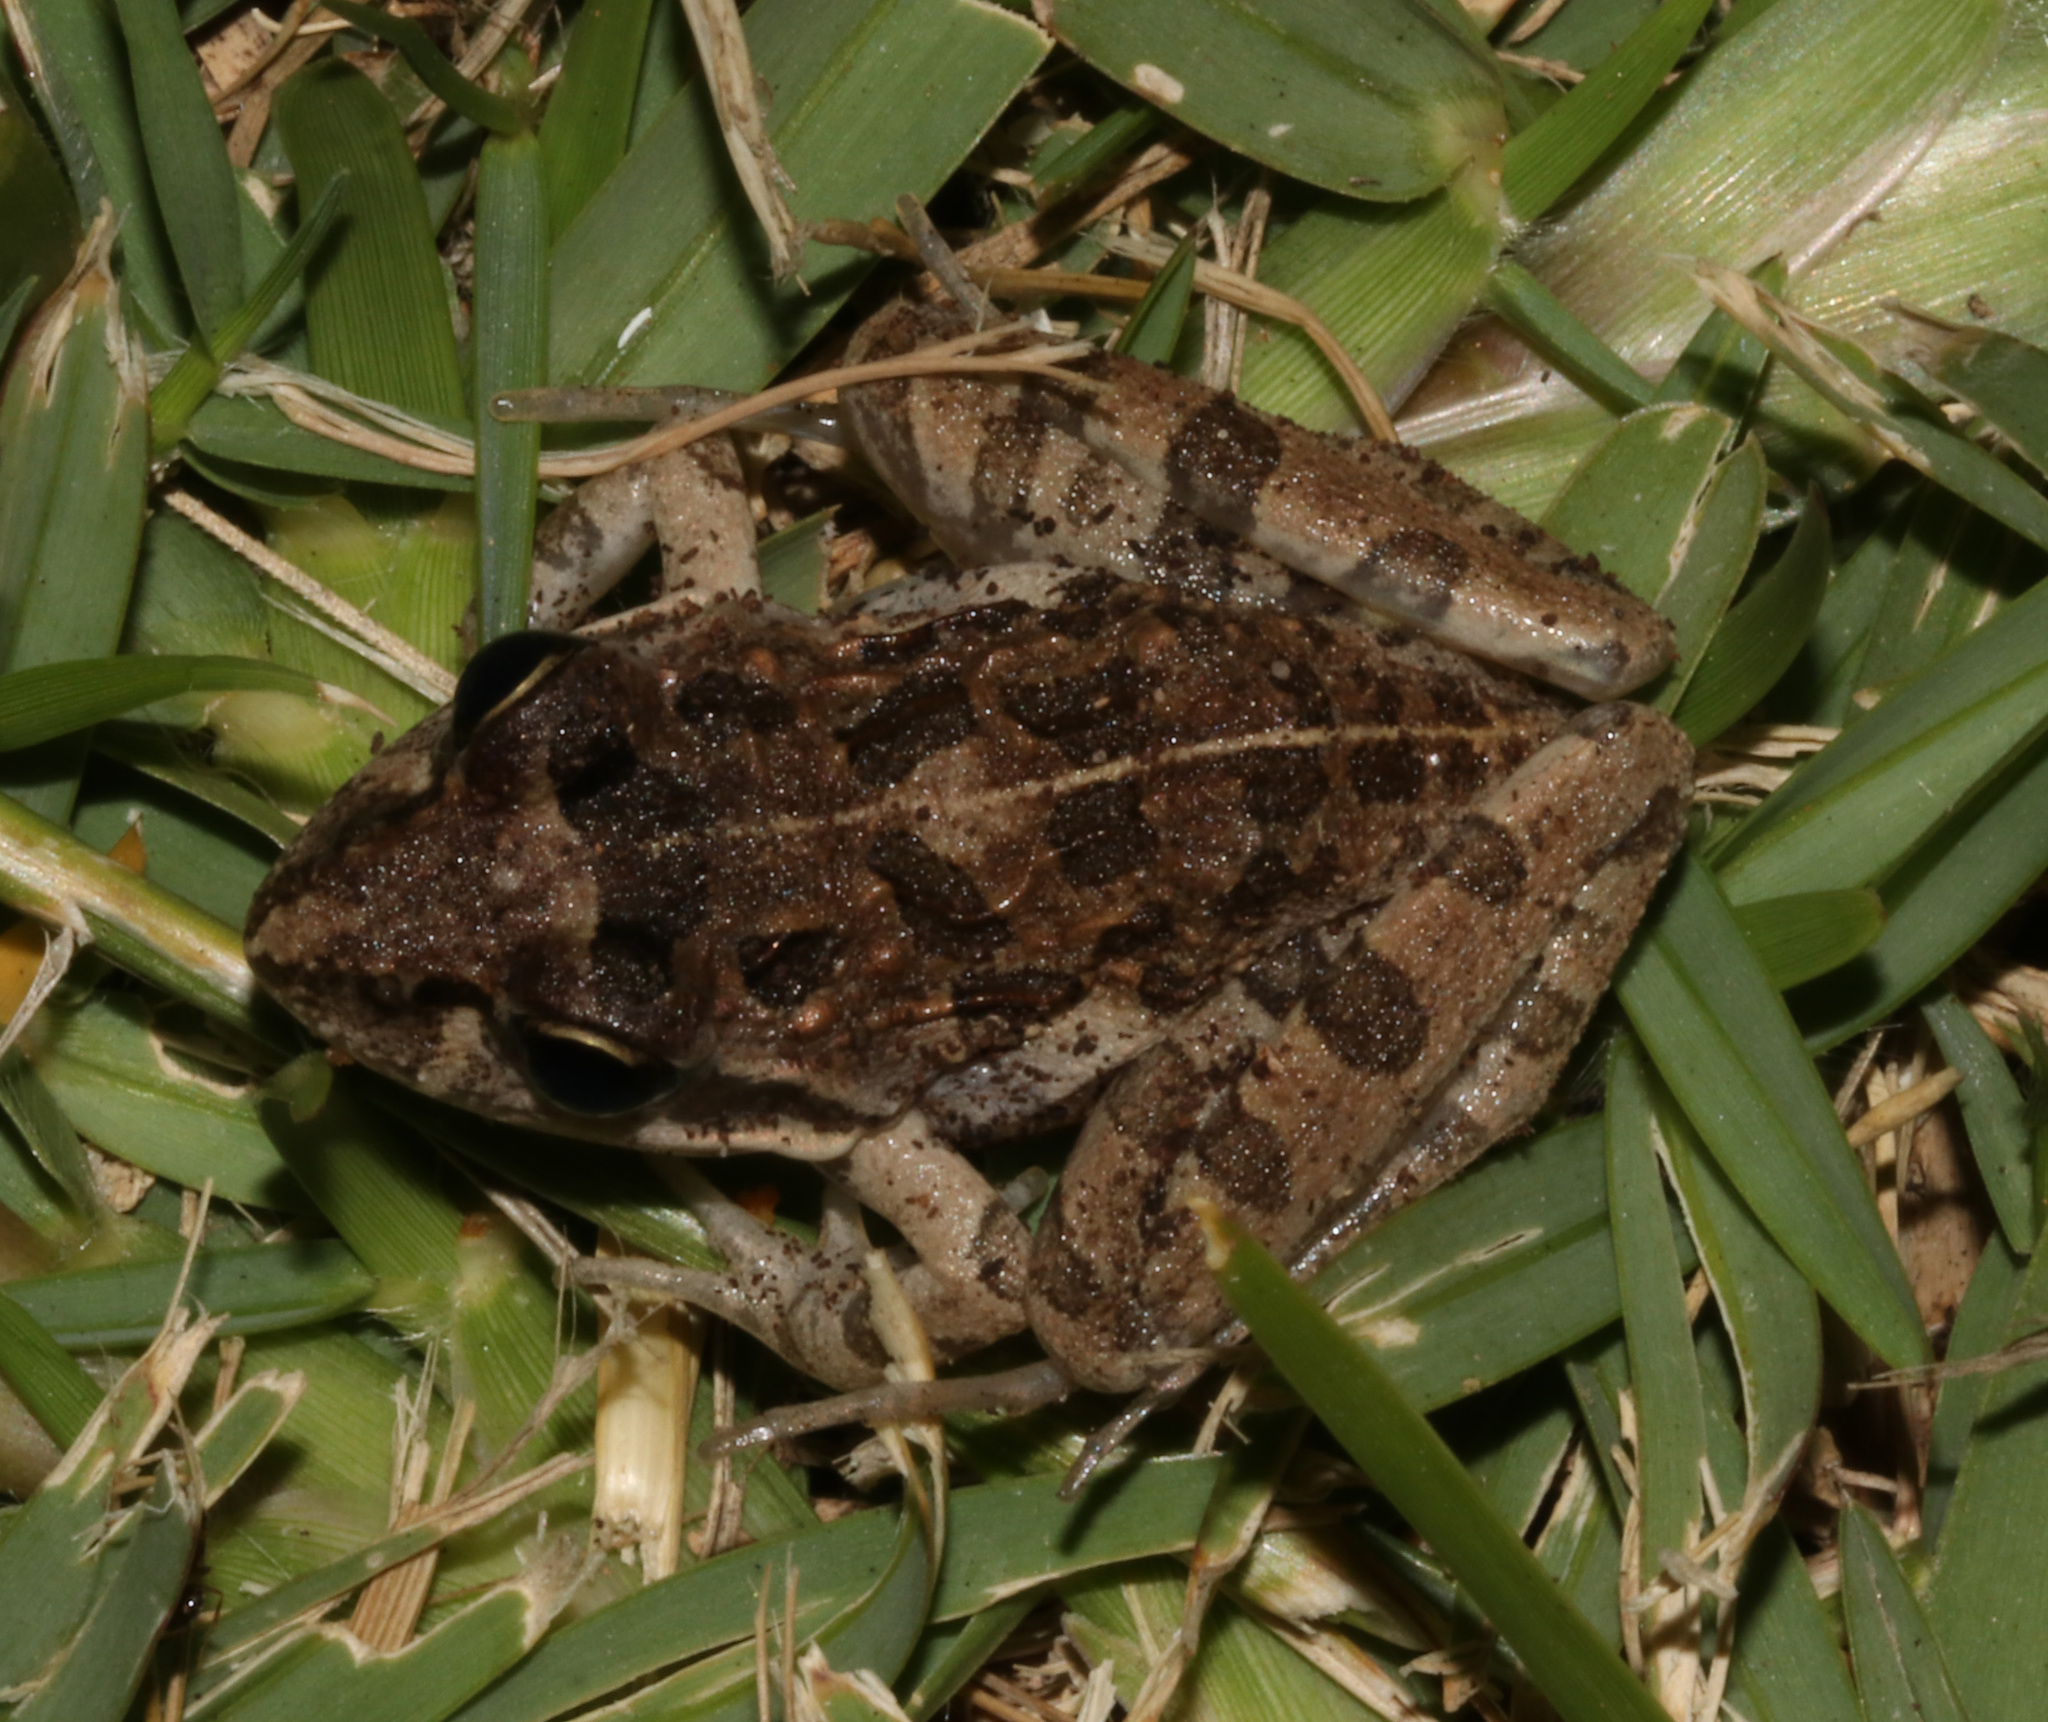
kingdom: Animalia
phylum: Chordata
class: Amphibia
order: Anura
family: Pyxicephalidae
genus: Strongylopus
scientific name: Strongylopus grayii
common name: Gray's stream frog
